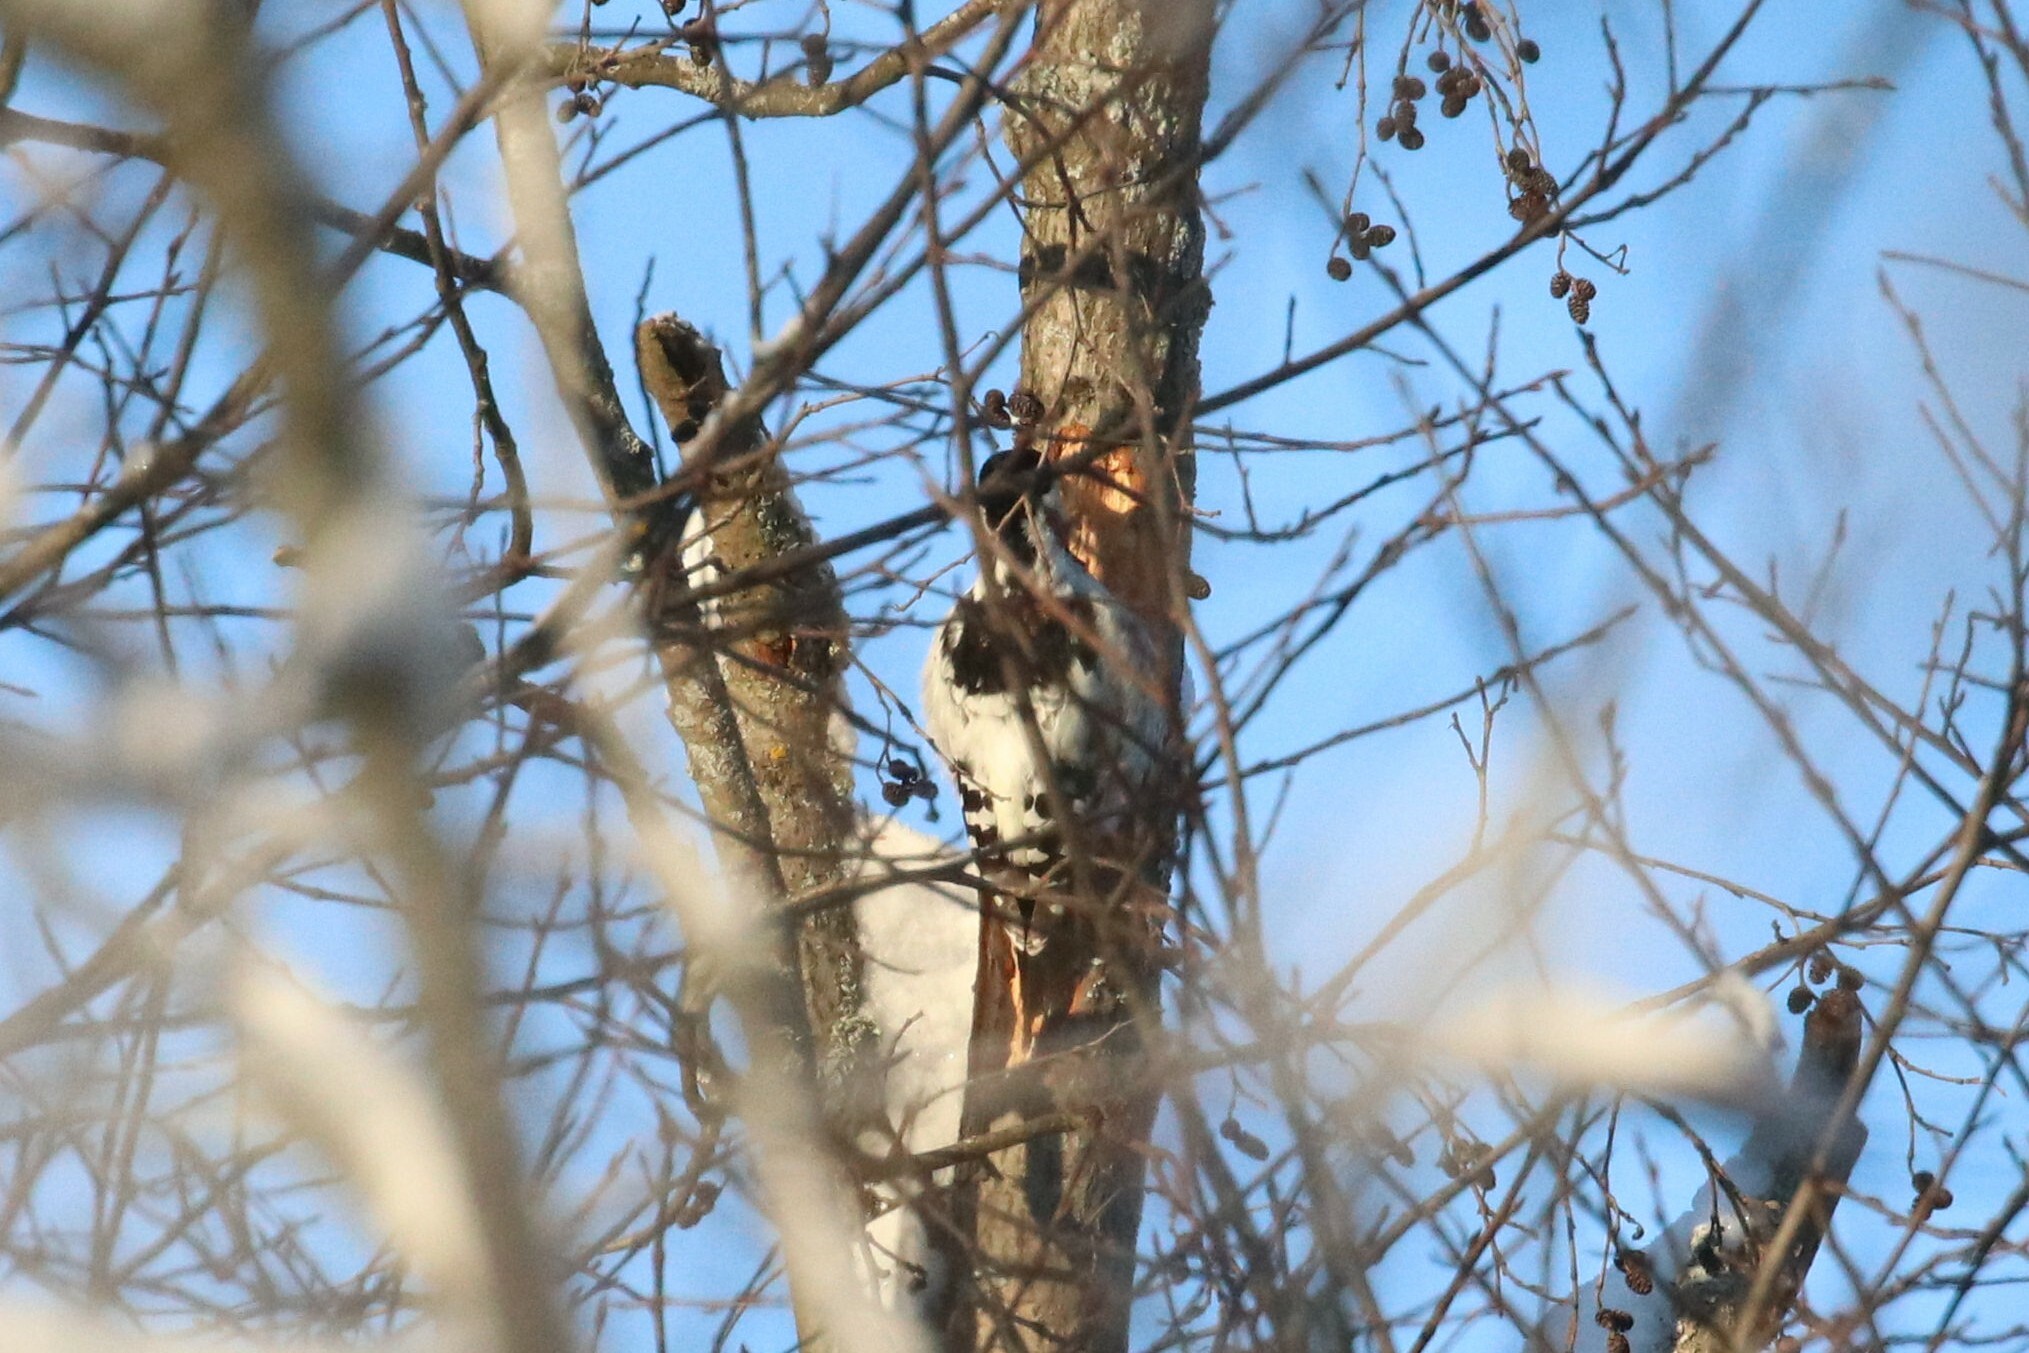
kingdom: Animalia
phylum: Chordata
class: Aves
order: Piciformes
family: Picidae
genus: Dendrocopos
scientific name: Dendrocopos leucotos
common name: White-backed woodpecker
